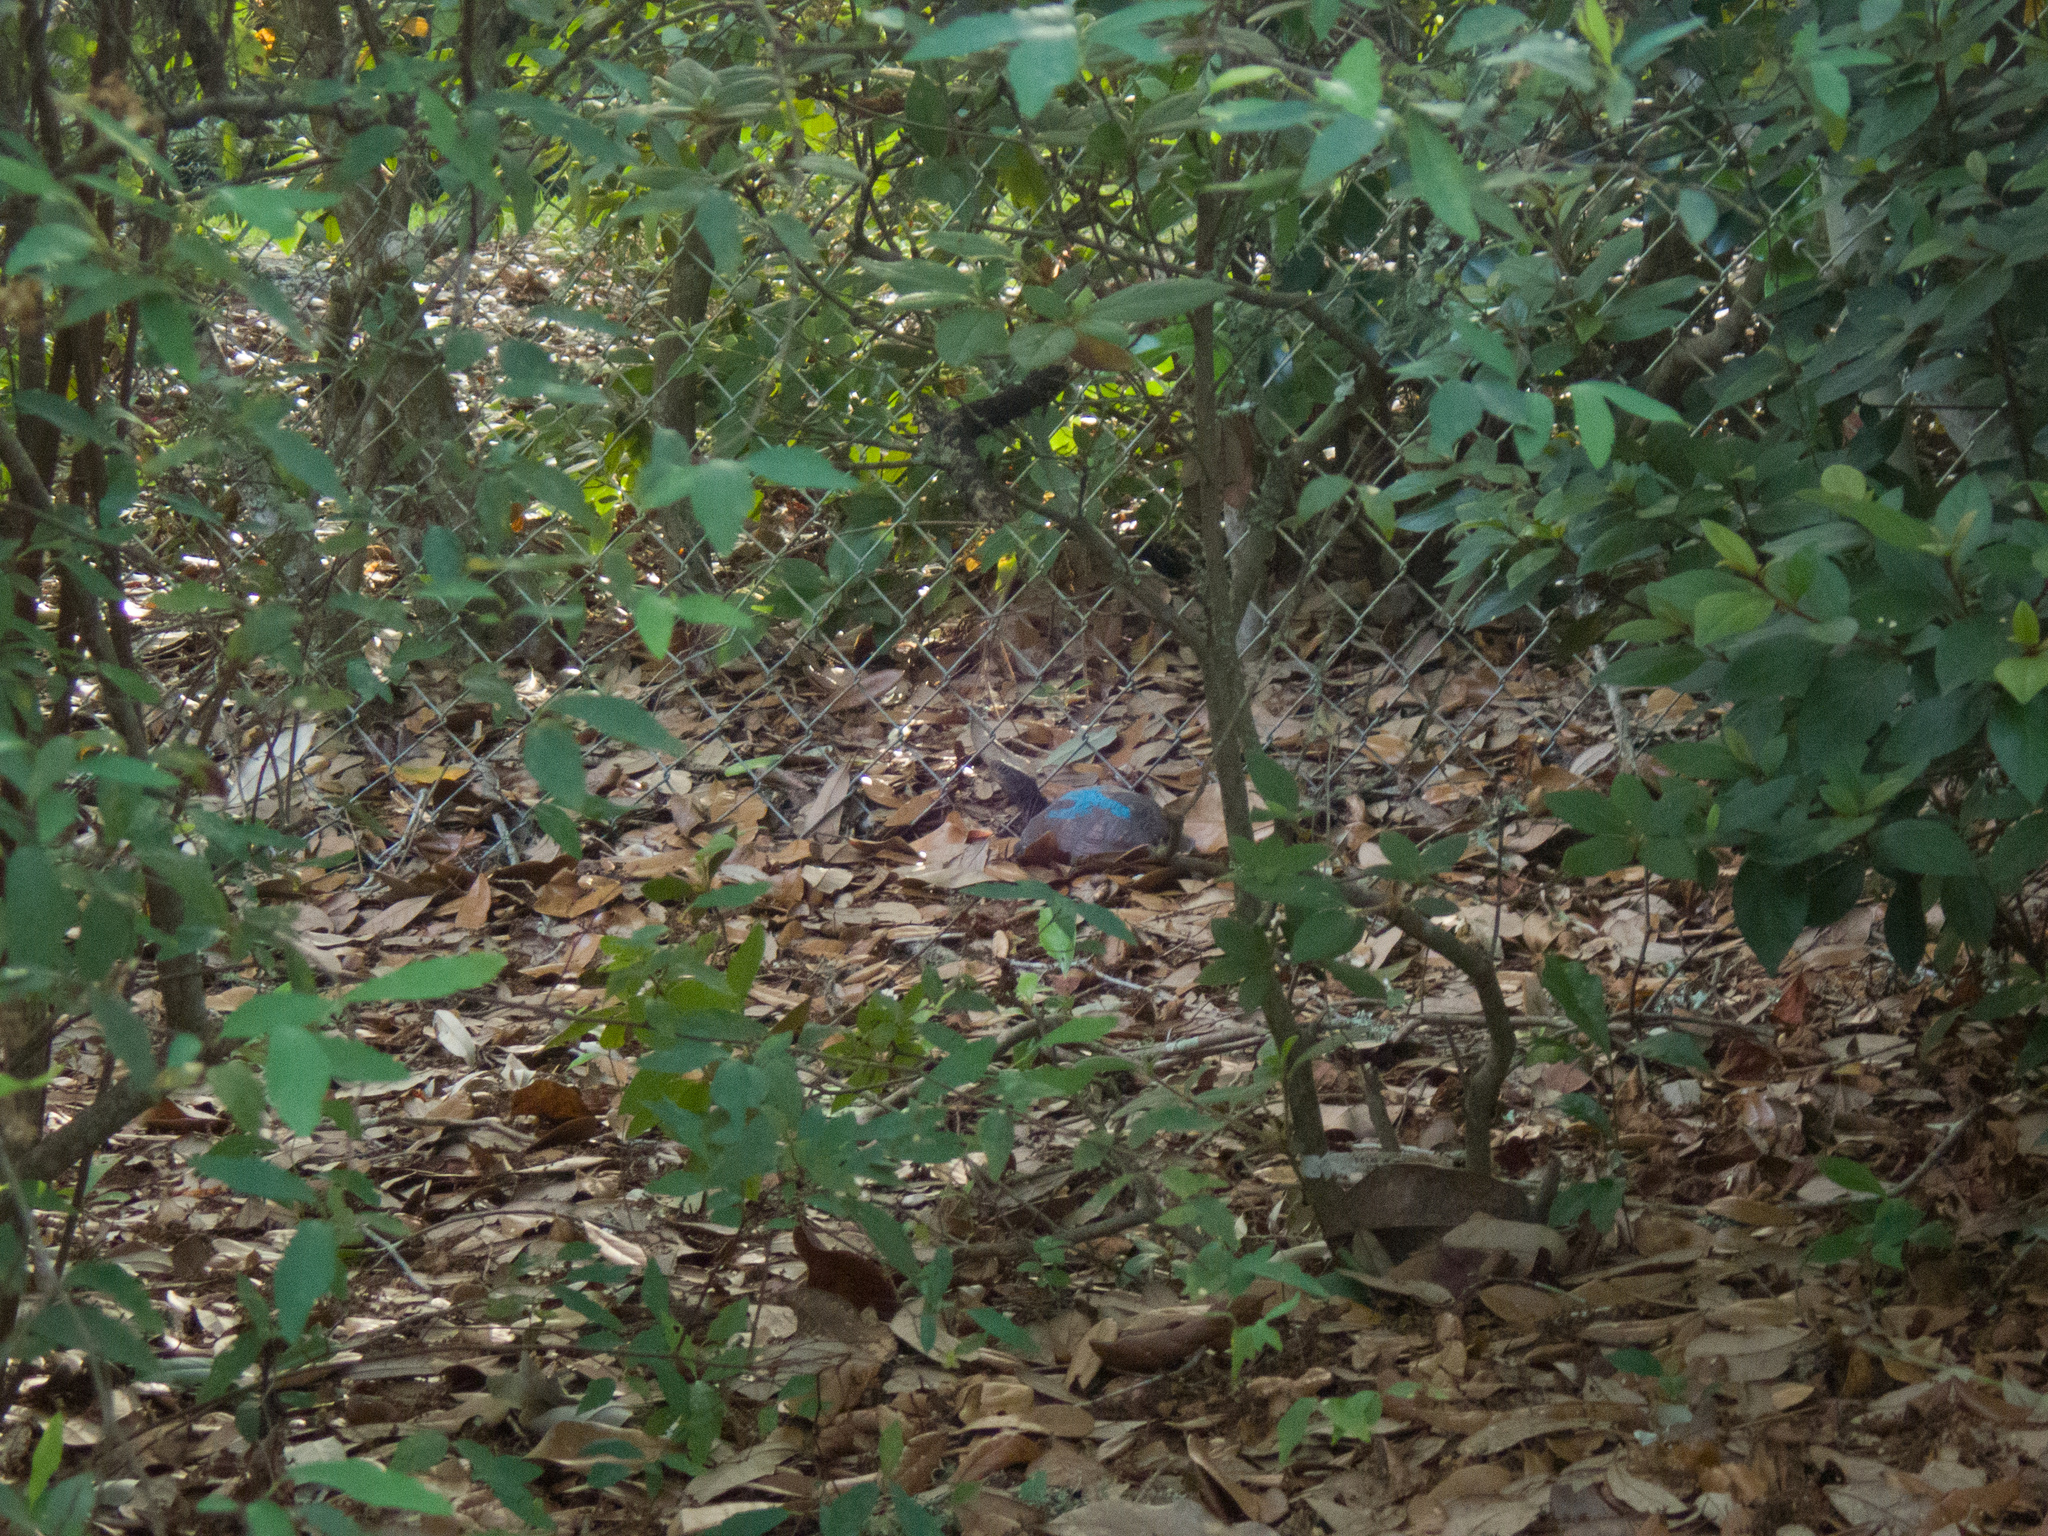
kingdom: Animalia
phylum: Chordata
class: Testudines
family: Emydidae
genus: Terrapene
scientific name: Terrapene carolina
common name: Common box turtle
